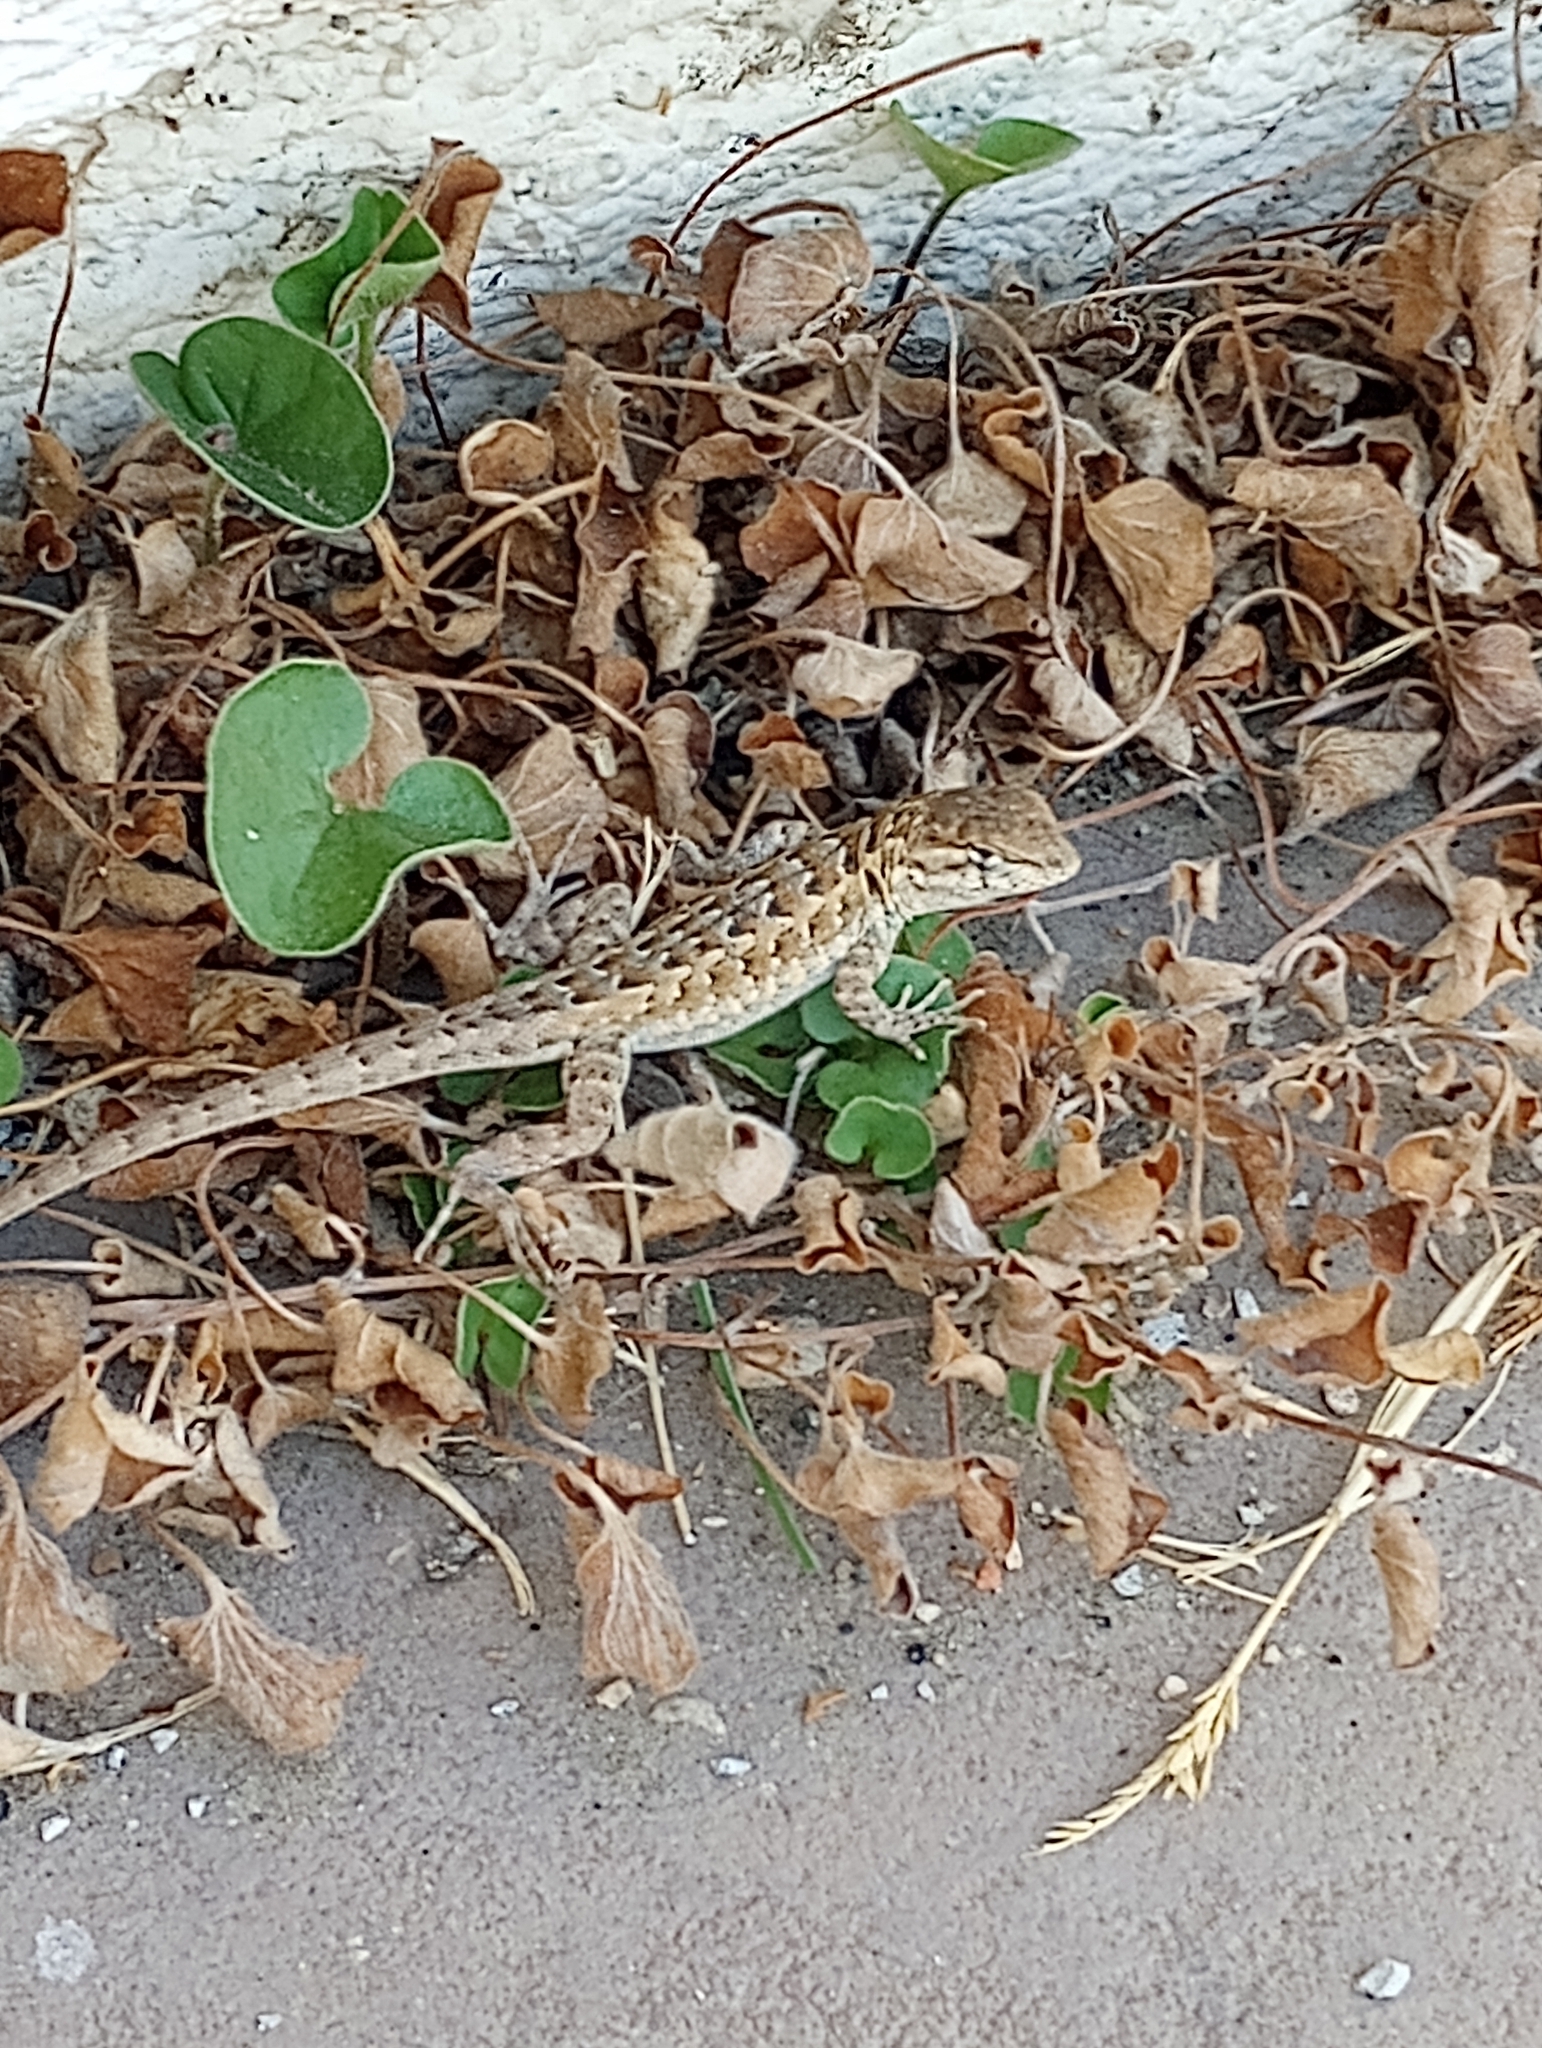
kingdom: Animalia
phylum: Chordata
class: Squamata
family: Phrynosomatidae
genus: Uta
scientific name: Uta stansburiana
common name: Side-blotched lizard
